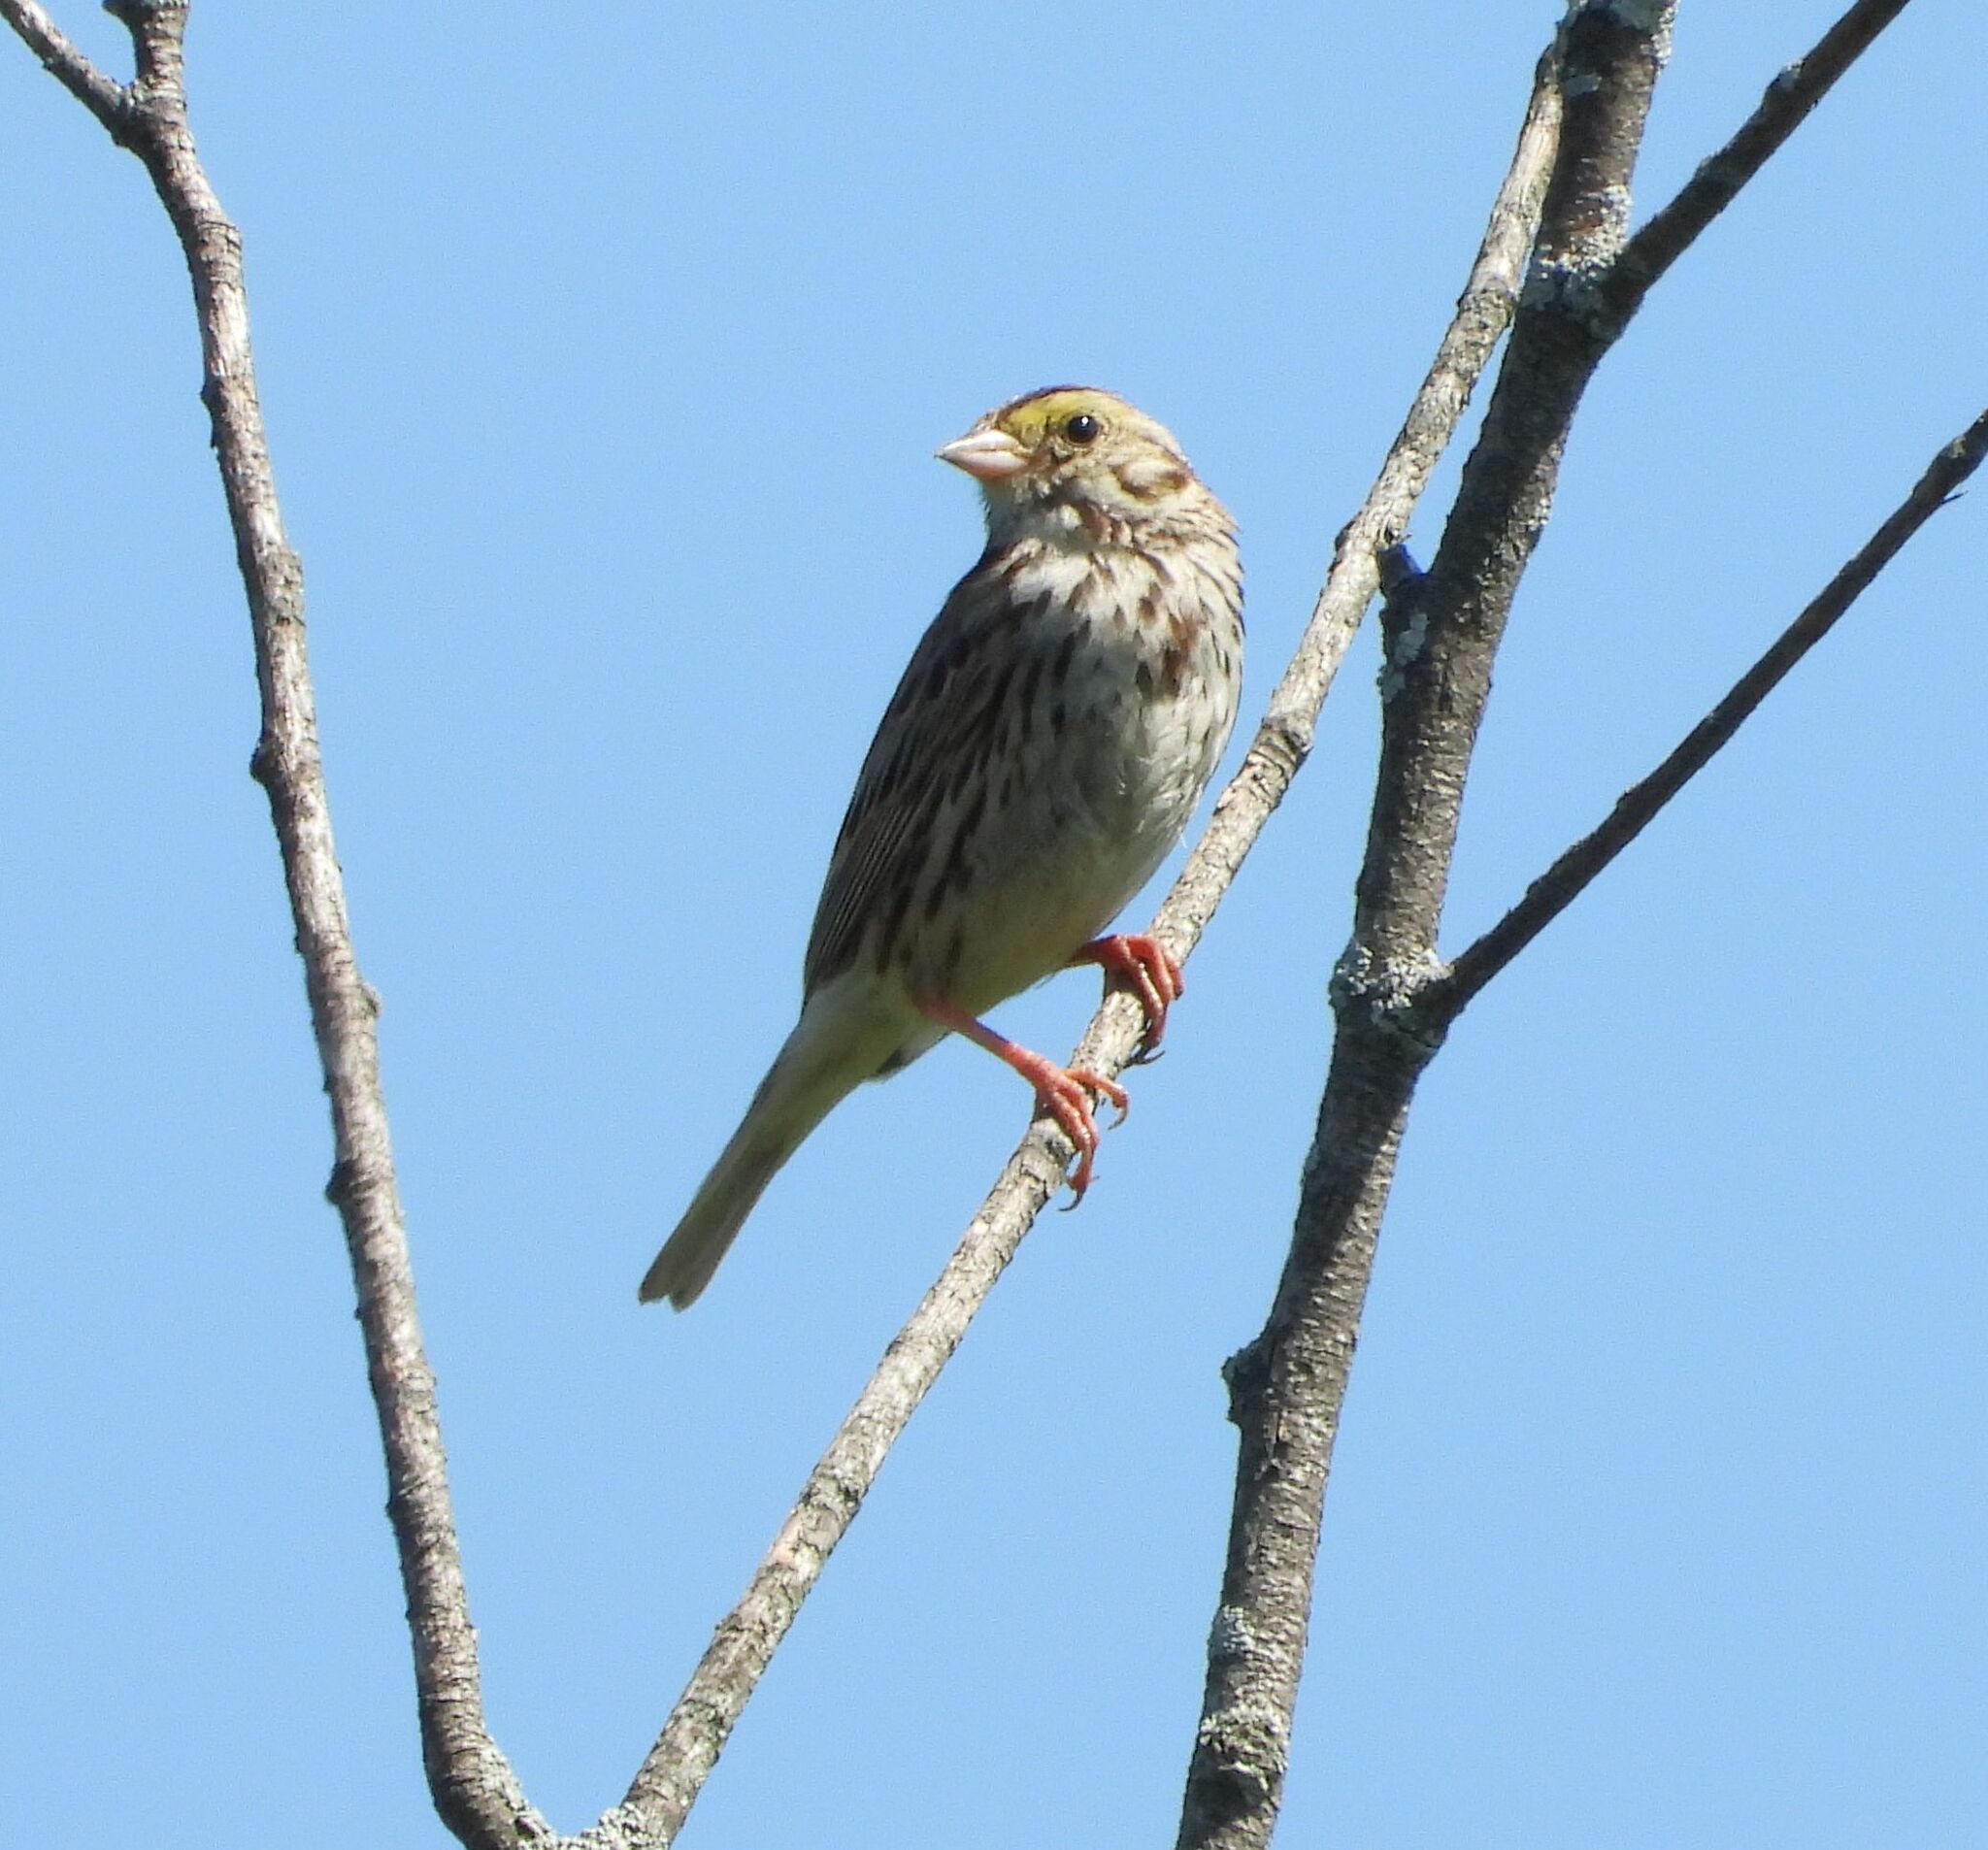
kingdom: Animalia
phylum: Chordata
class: Aves
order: Passeriformes
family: Passerellidae
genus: Passerculus
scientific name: Passerculus sandwichensis
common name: Savannah sparrow
